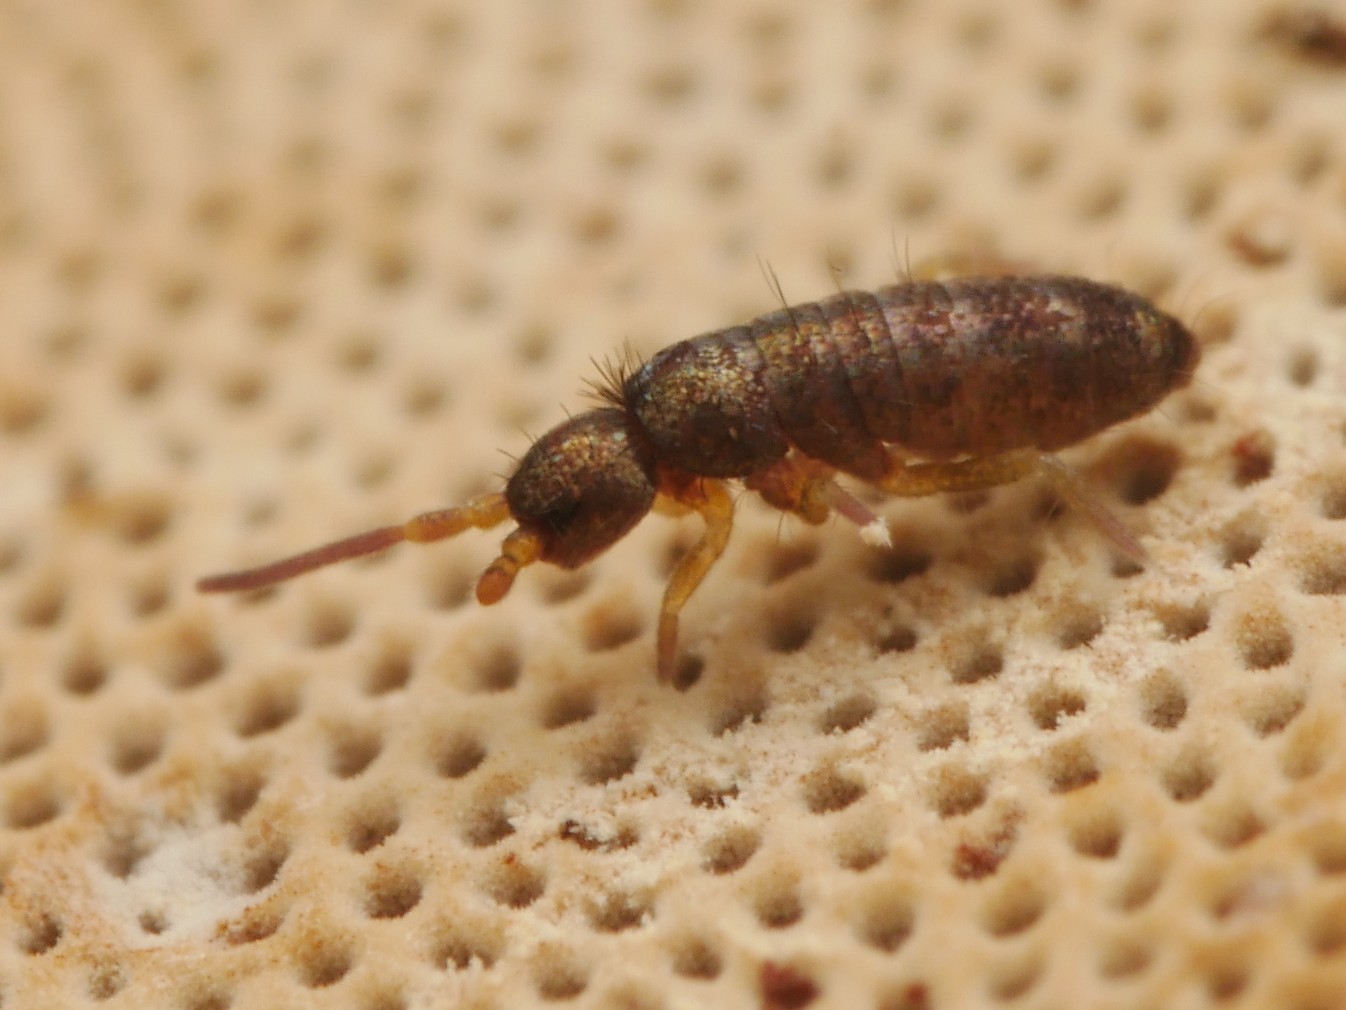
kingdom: Animalia
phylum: Arthropoda
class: Collembola
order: Entomobryomorpha
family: Tomoceridae
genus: Tomocerus
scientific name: Tomocerus minor
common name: Springtail
